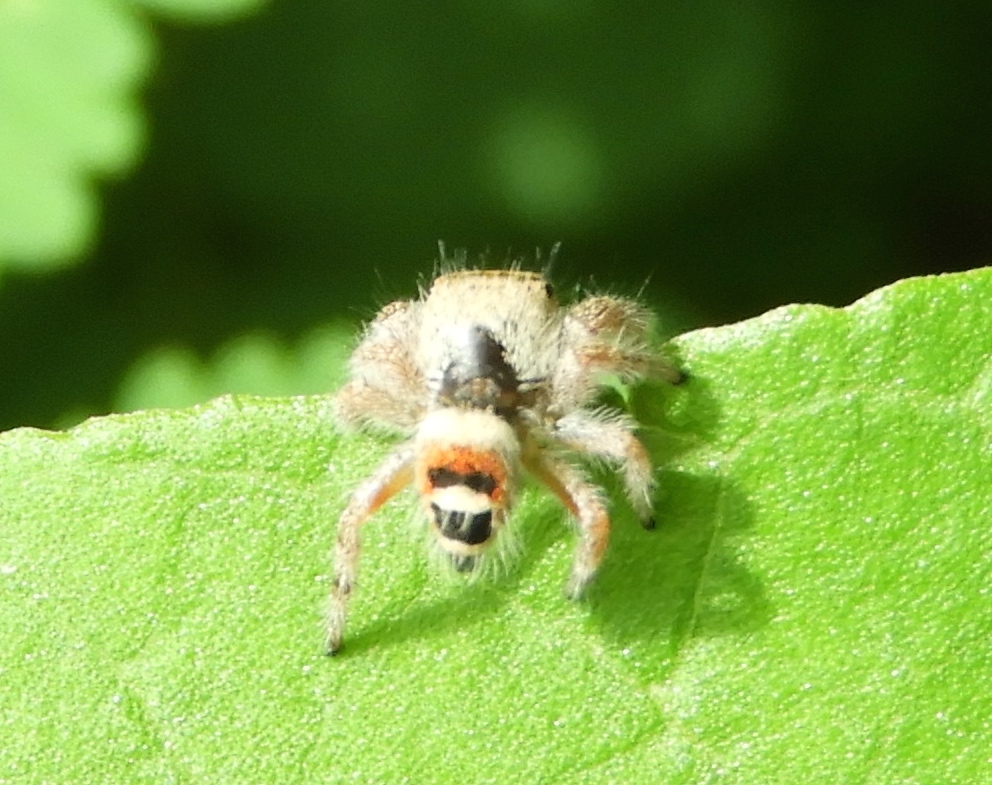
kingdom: Animalia
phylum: Arthropoda
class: Arachnida
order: Araneae
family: Salticidae
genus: Phidippus
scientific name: Phidippus pacosauritus
